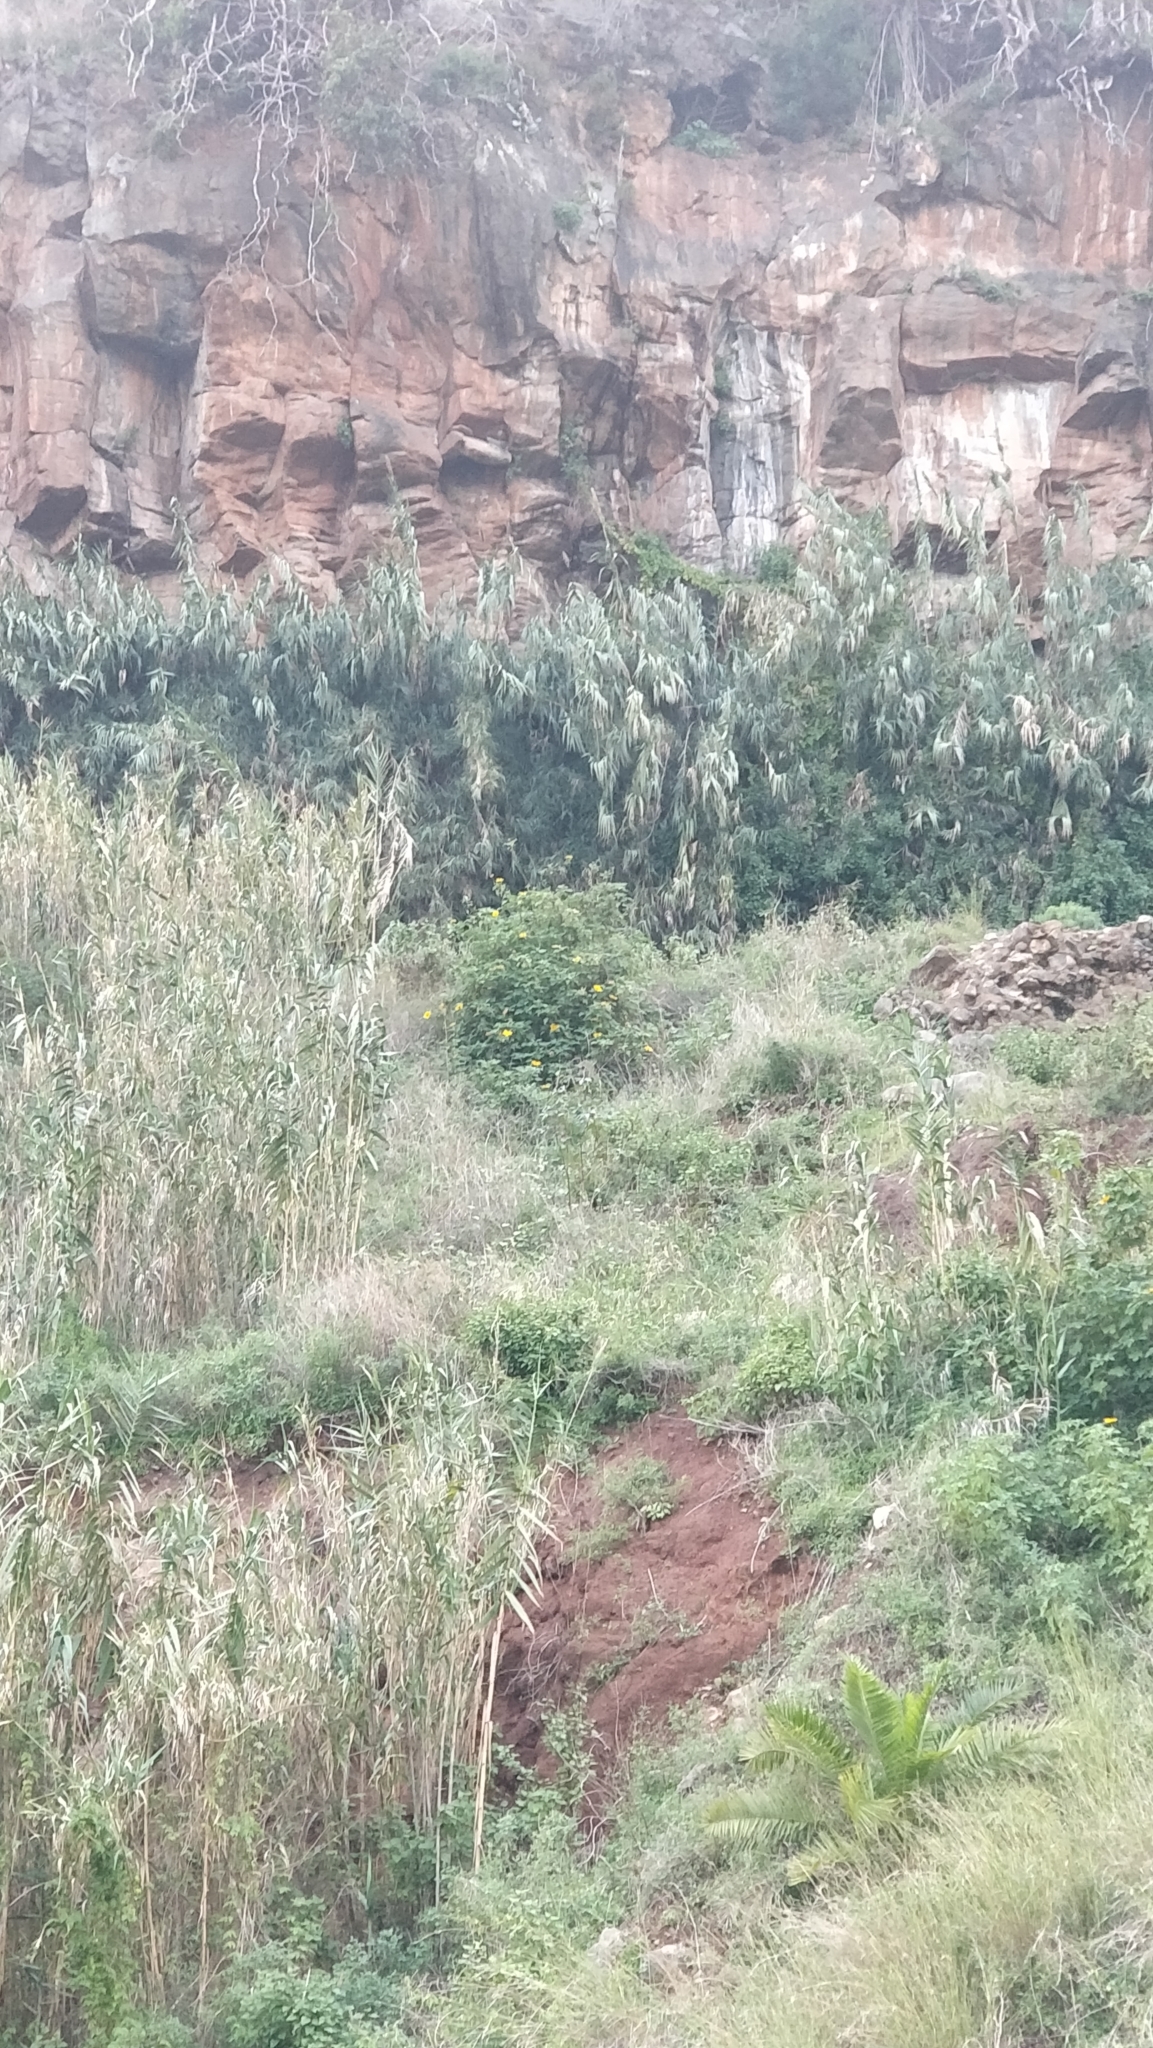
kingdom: Plantae
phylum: Tracheophyta
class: Magnoliopsida
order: Asterales
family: Asteraceae
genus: Tithonia
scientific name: Tithonia diversifolia
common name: Tree marigold
